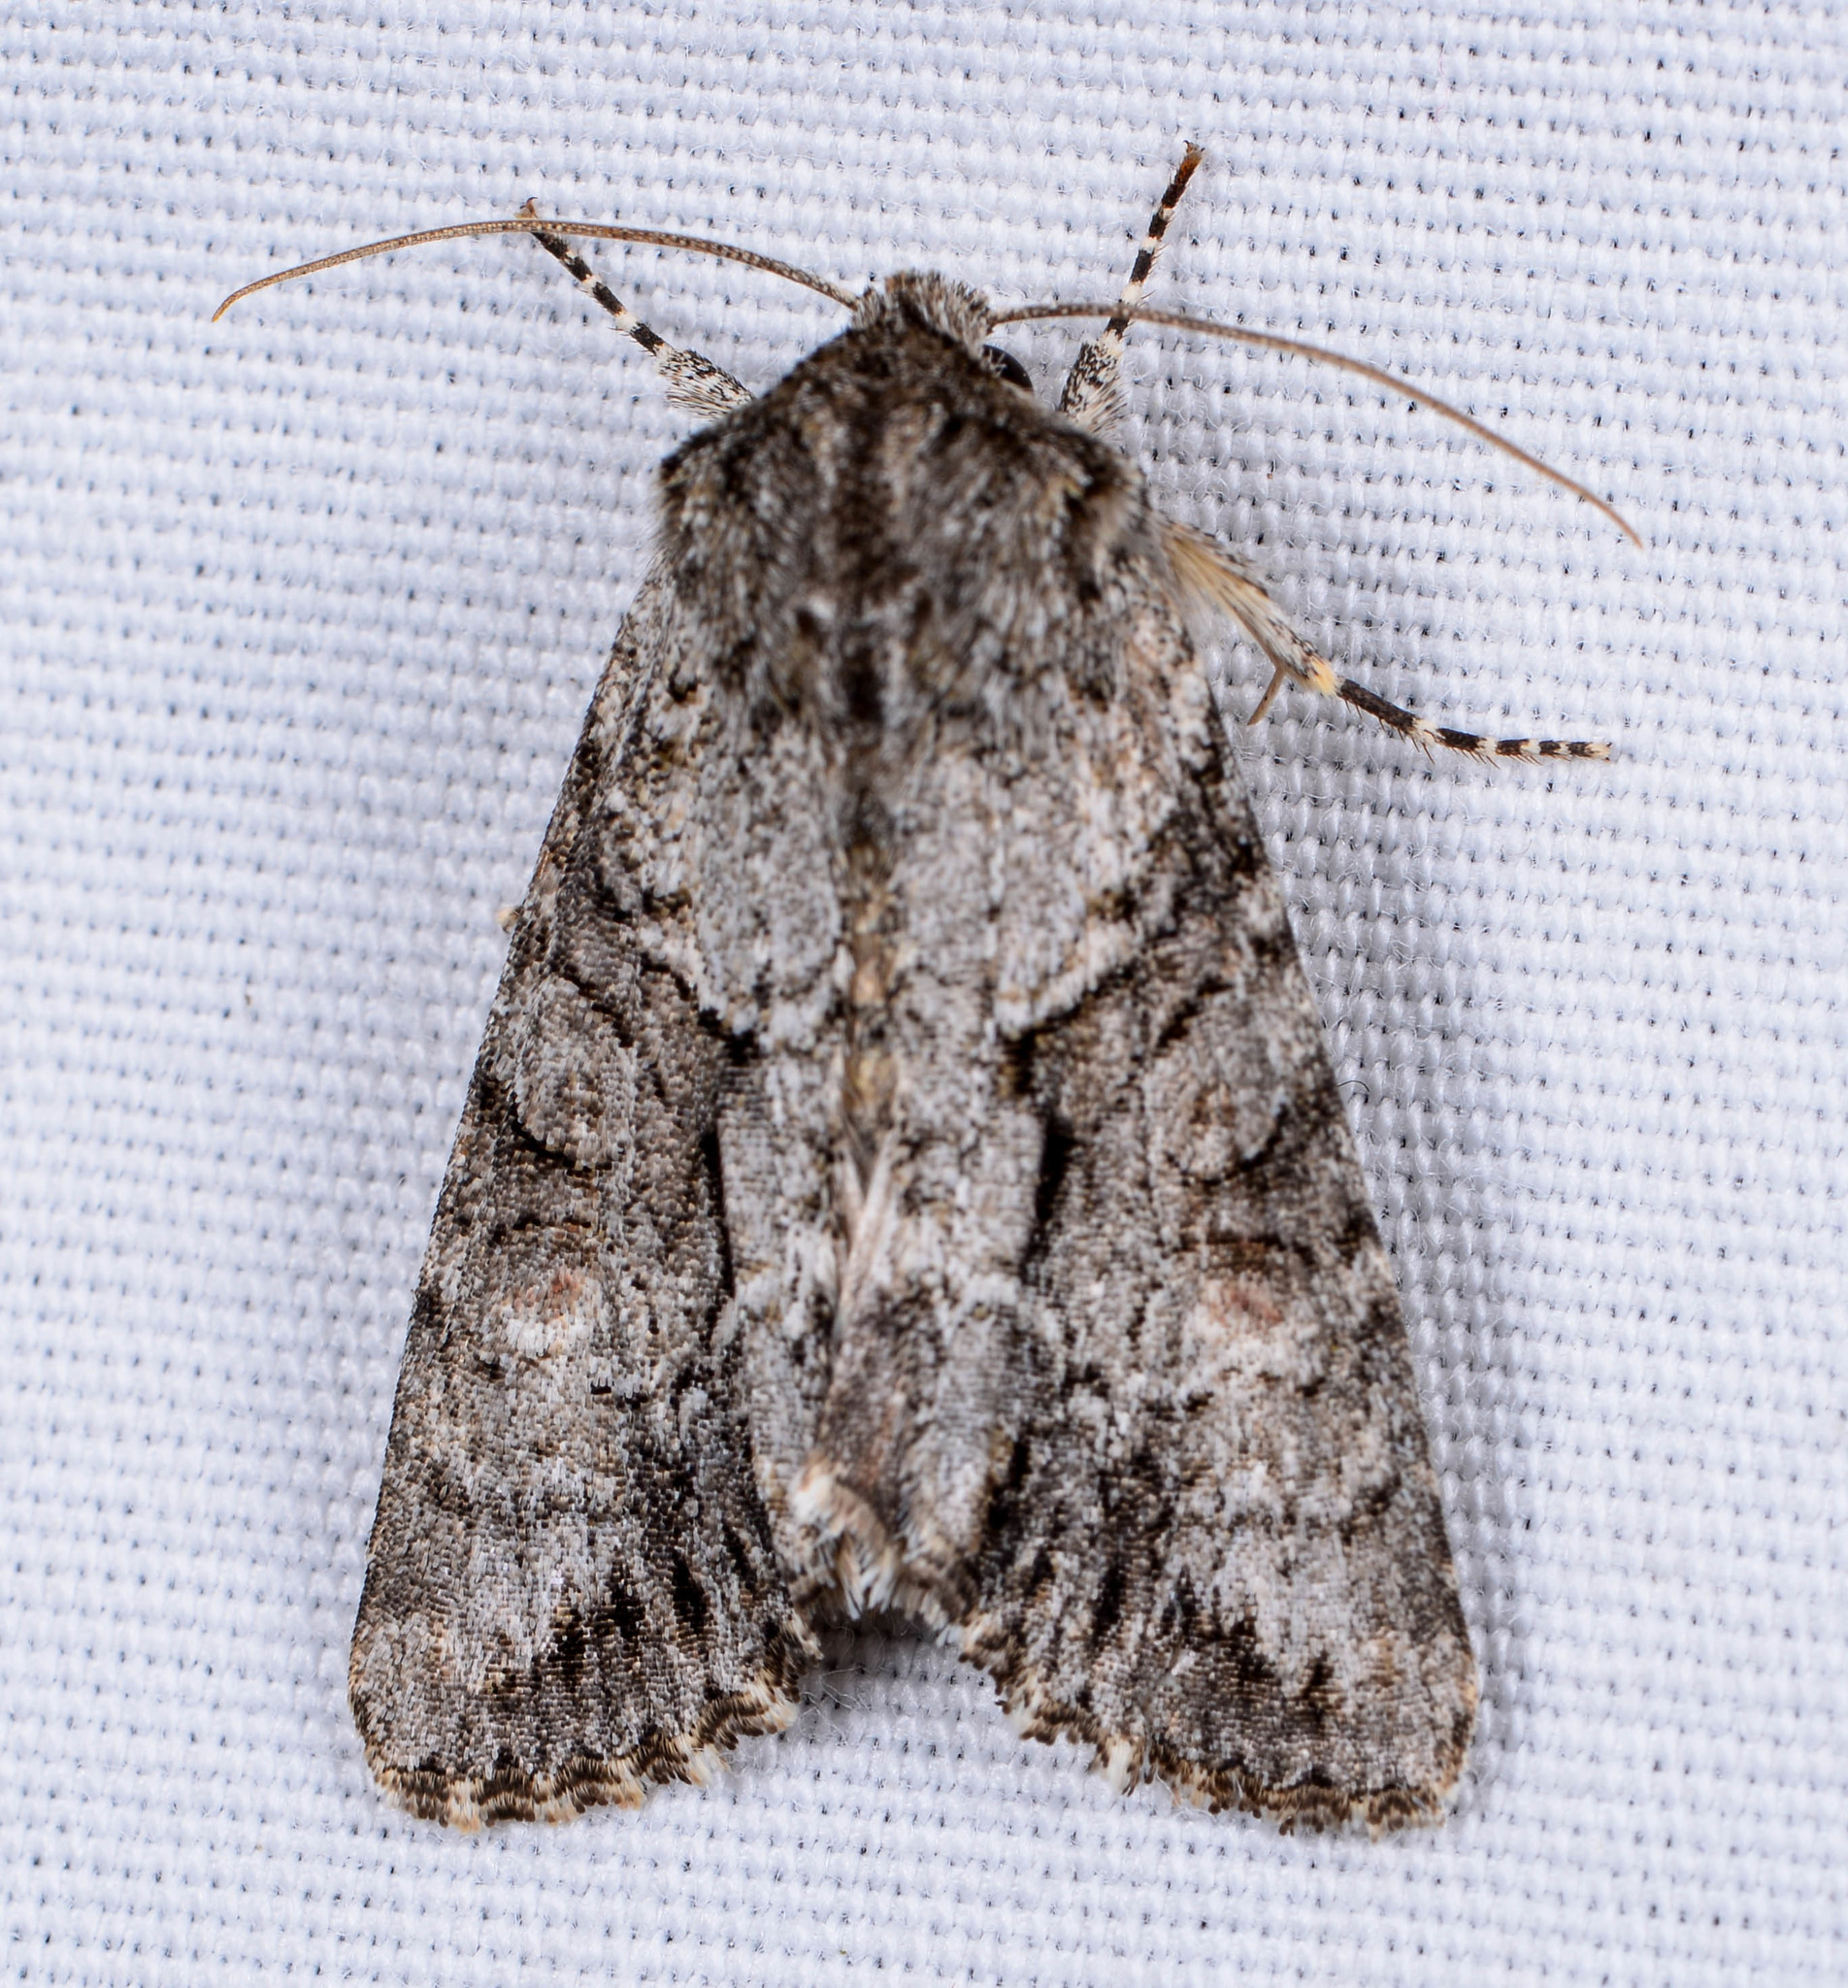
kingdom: Animalia
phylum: Arthropoda
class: Insecta
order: Lepidoptera
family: Noctuidae
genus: Achatia
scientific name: Achatia distincta
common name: Distinct quaker
